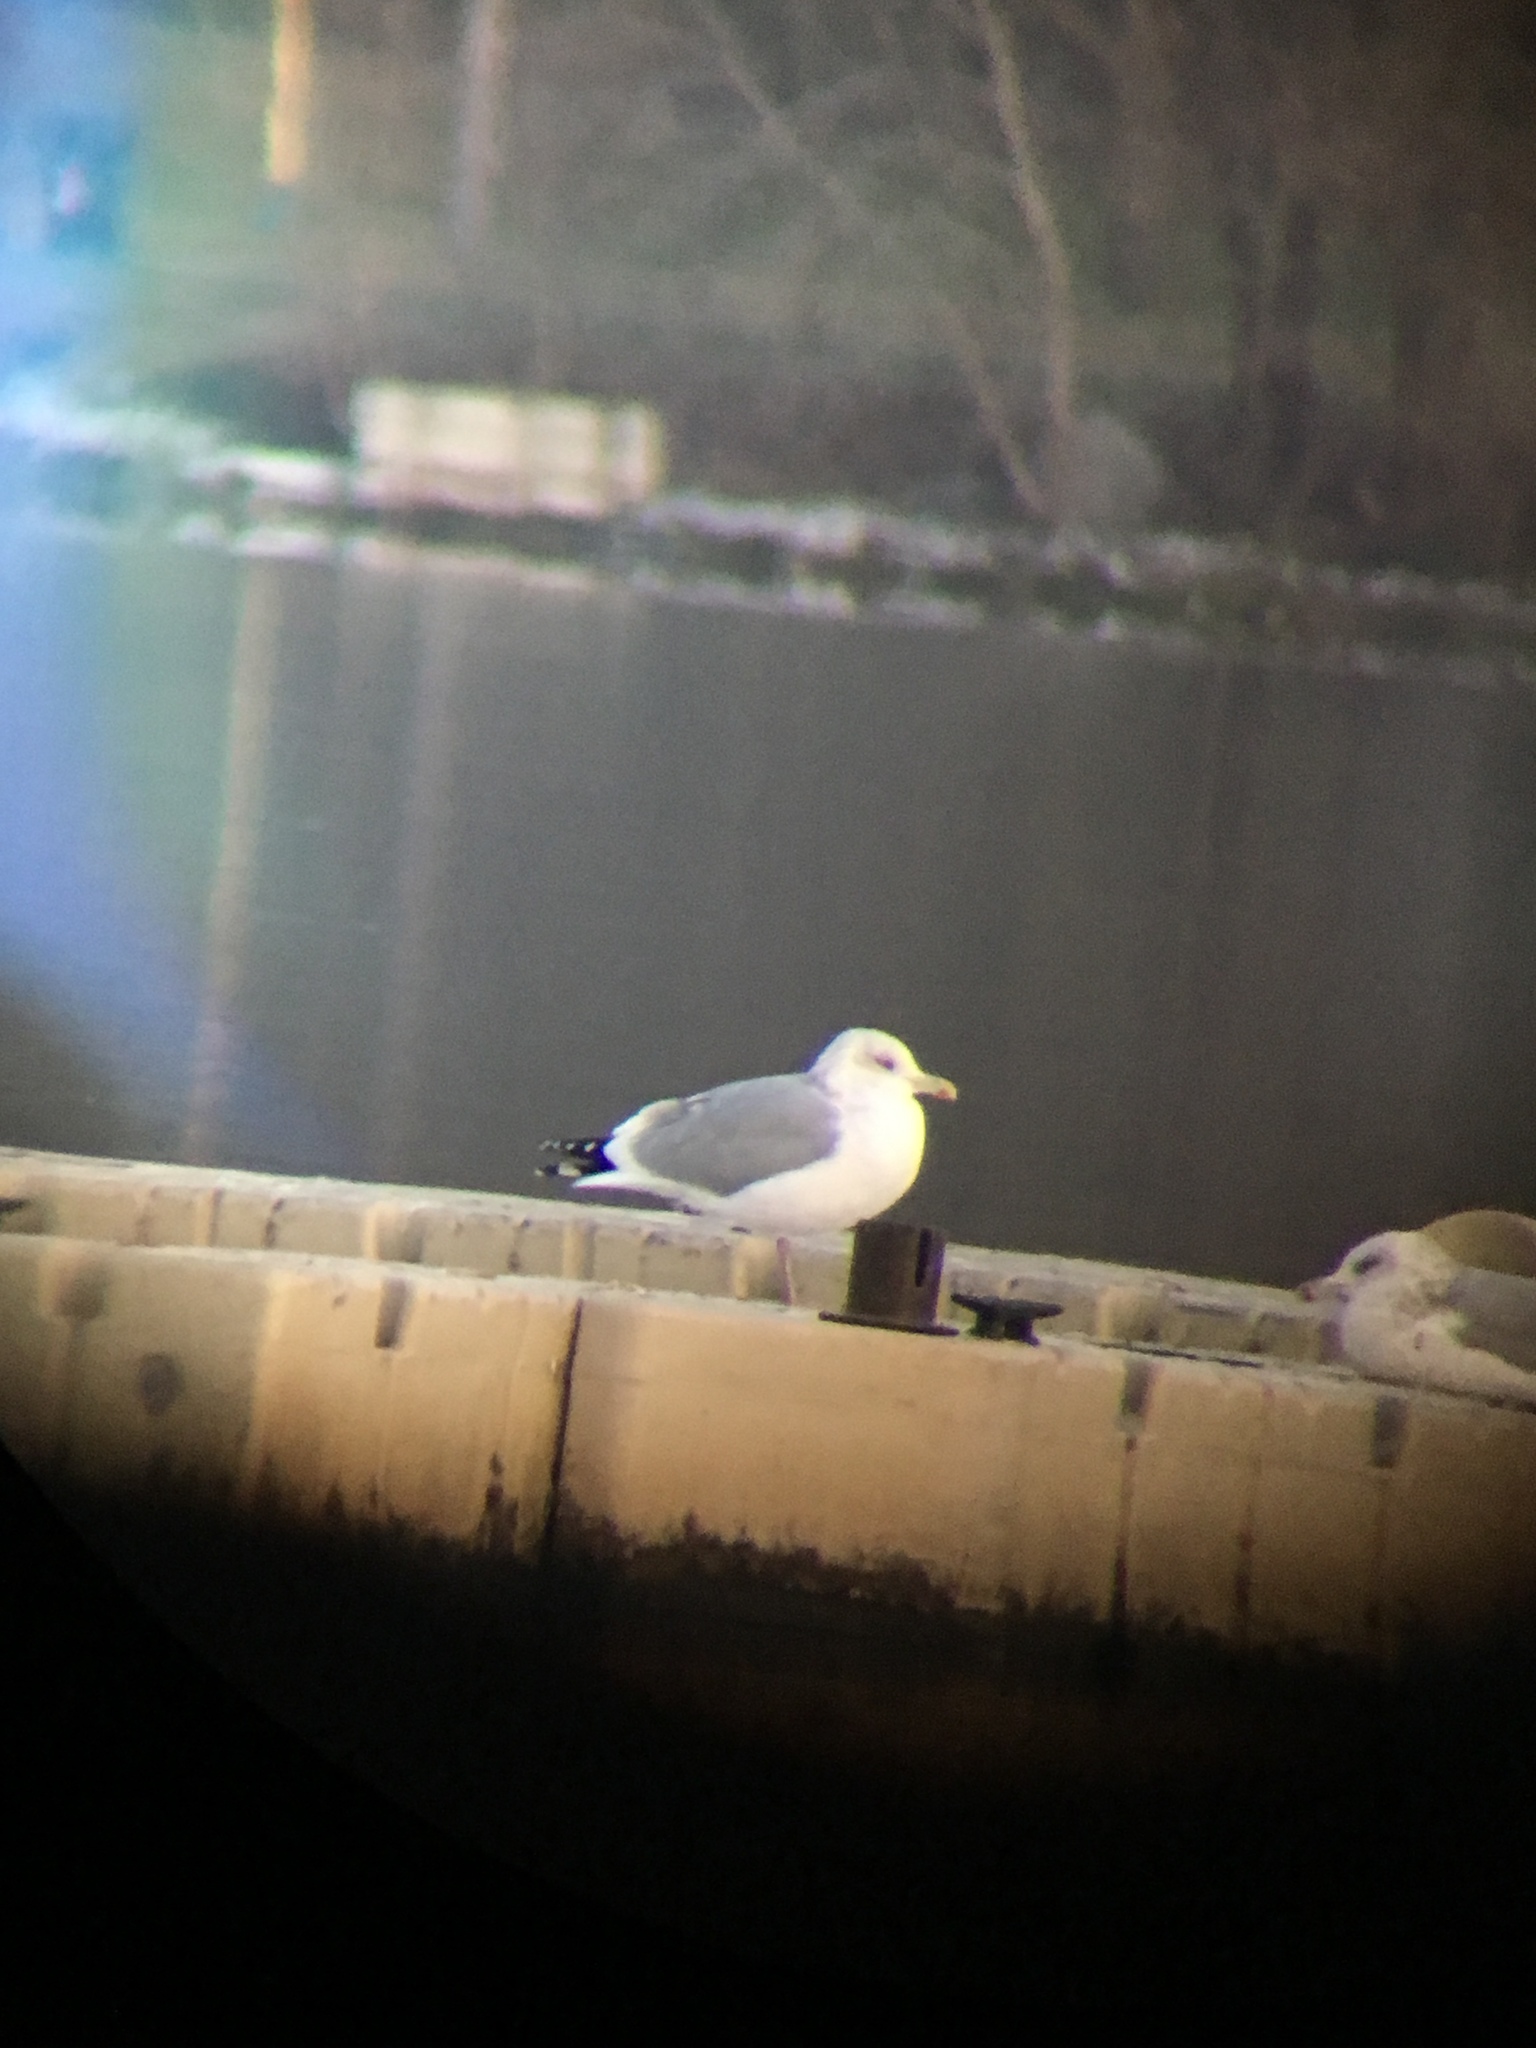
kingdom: Animalia
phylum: Chordata
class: Aves
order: Charadriiformes
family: Laridae
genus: Larus
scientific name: Larus argentatus
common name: Herring gull
